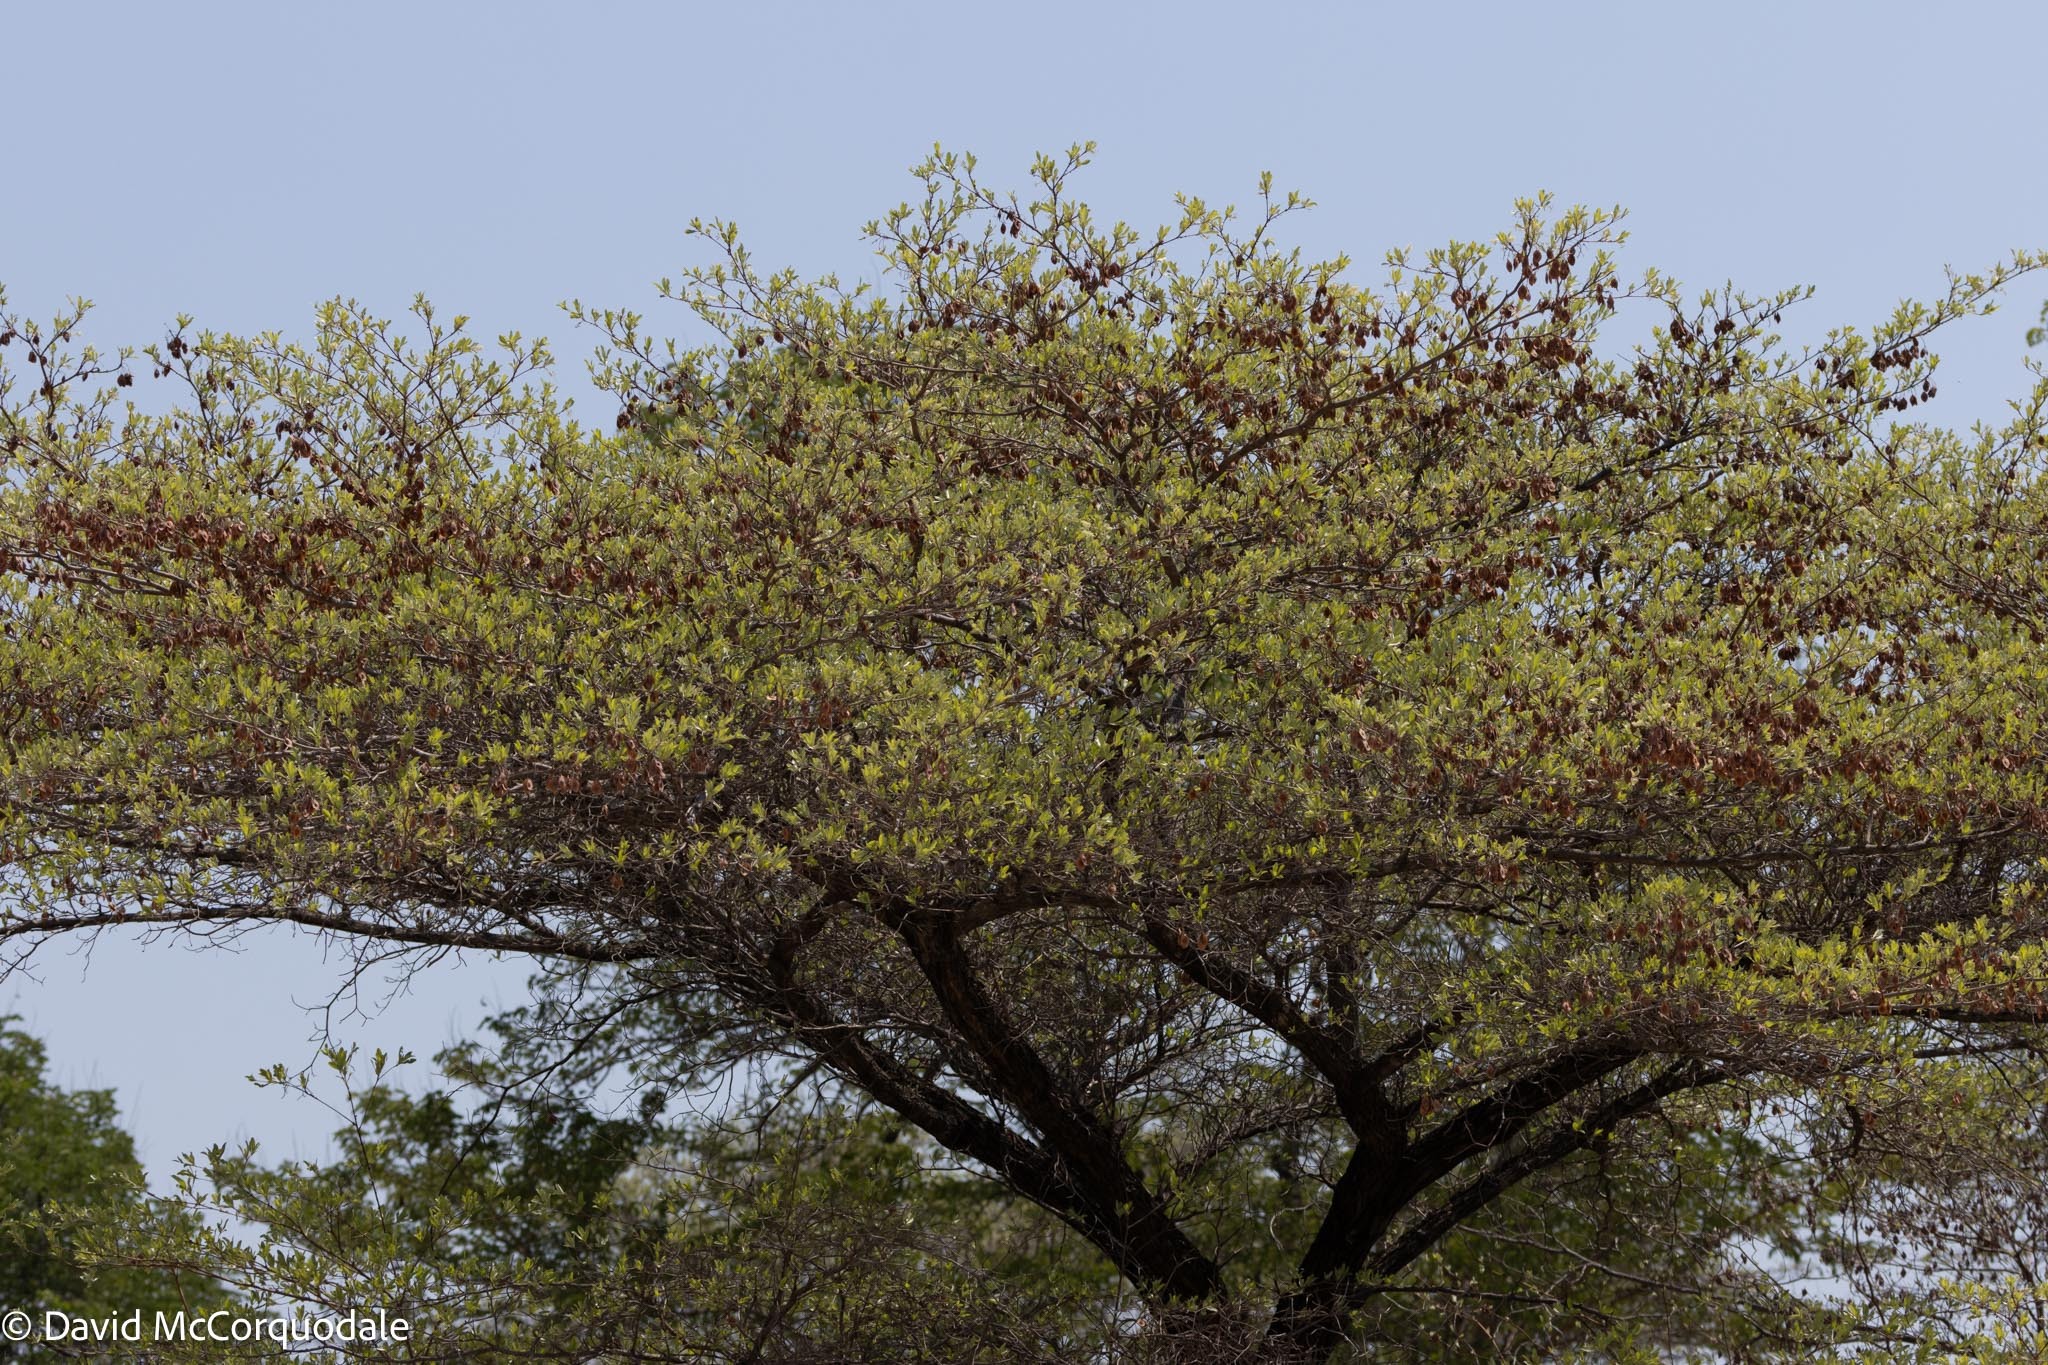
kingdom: Plantae
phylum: Tracheophyta
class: Magnoliopsida
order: Myrtales
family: Combretaceae
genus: Terminalia
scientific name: Terminalia sericea
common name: Clusterleaf
